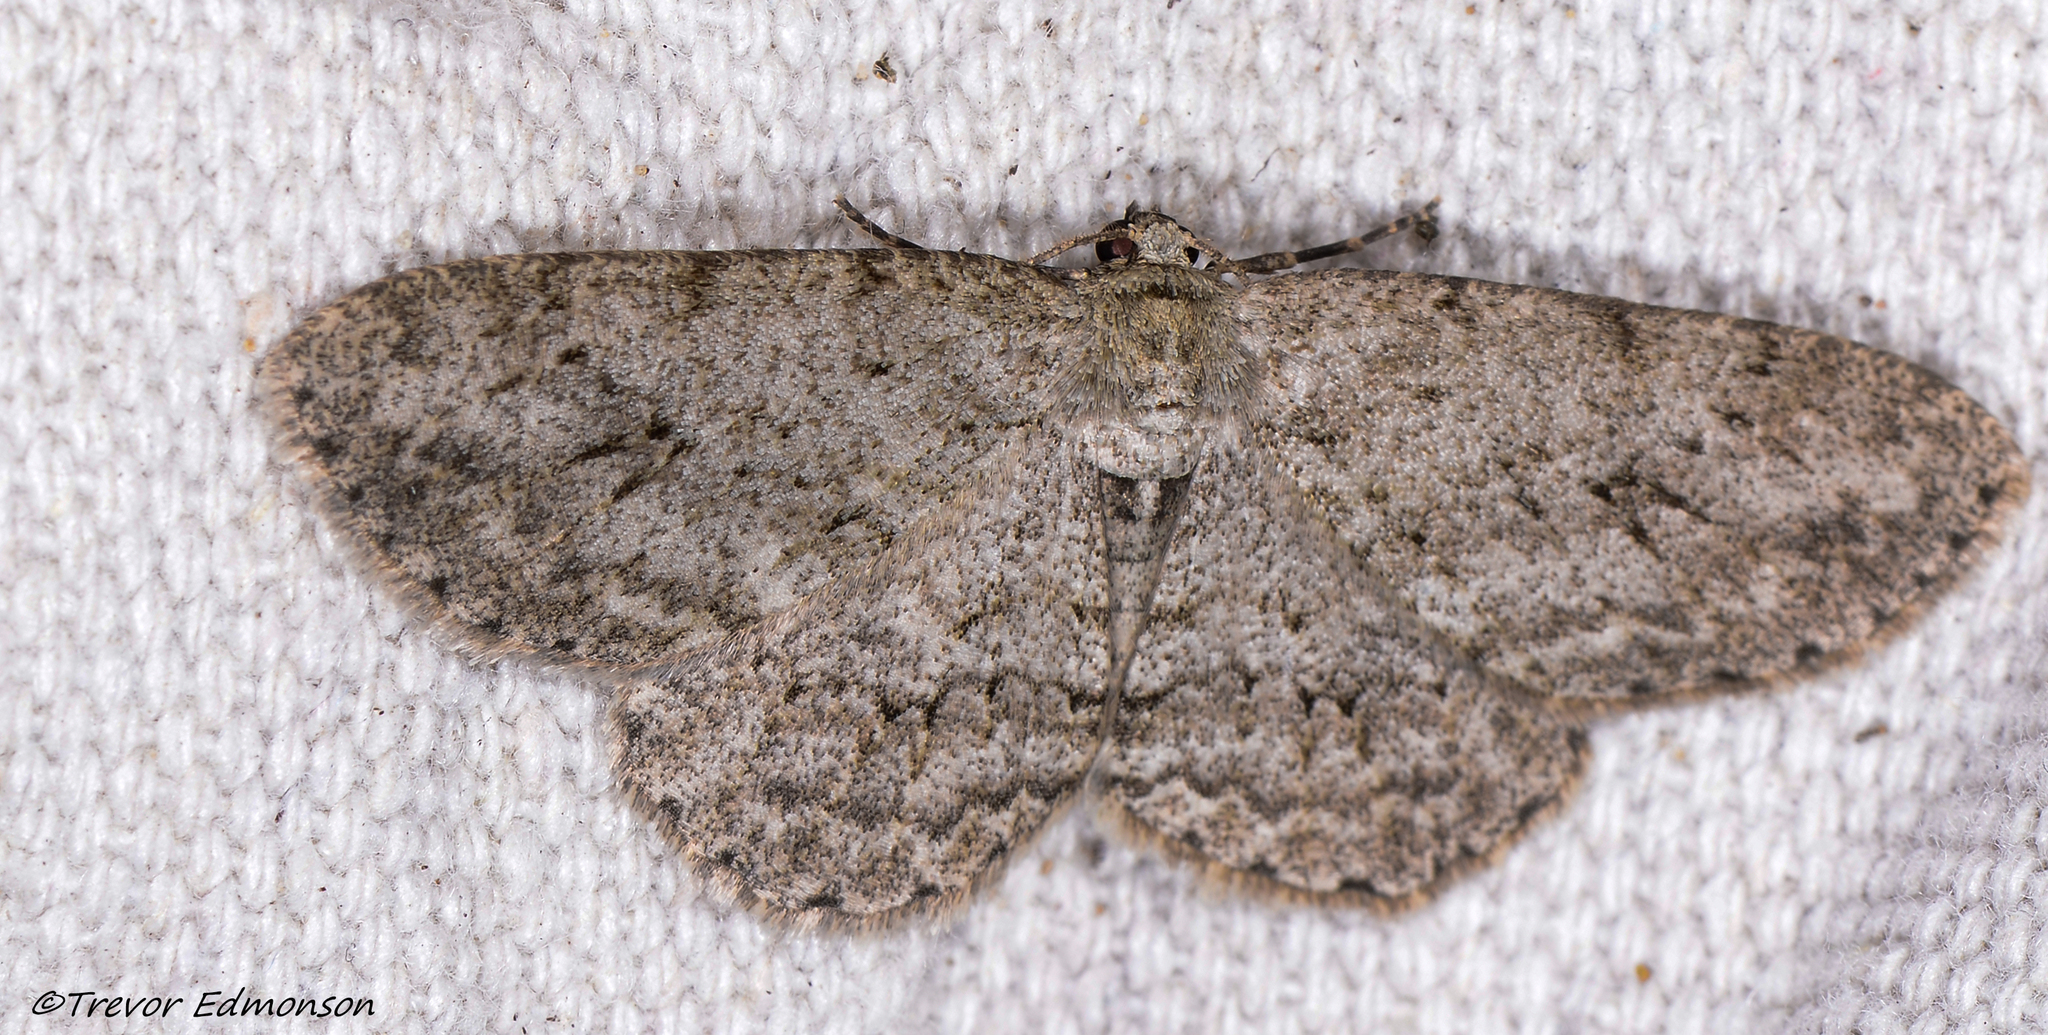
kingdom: Animalia
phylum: Arthropoda
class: Insecta
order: Lepidoptera
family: Geometridae
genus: Ectropis
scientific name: Ectropis crepuscularia
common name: Engrailed
